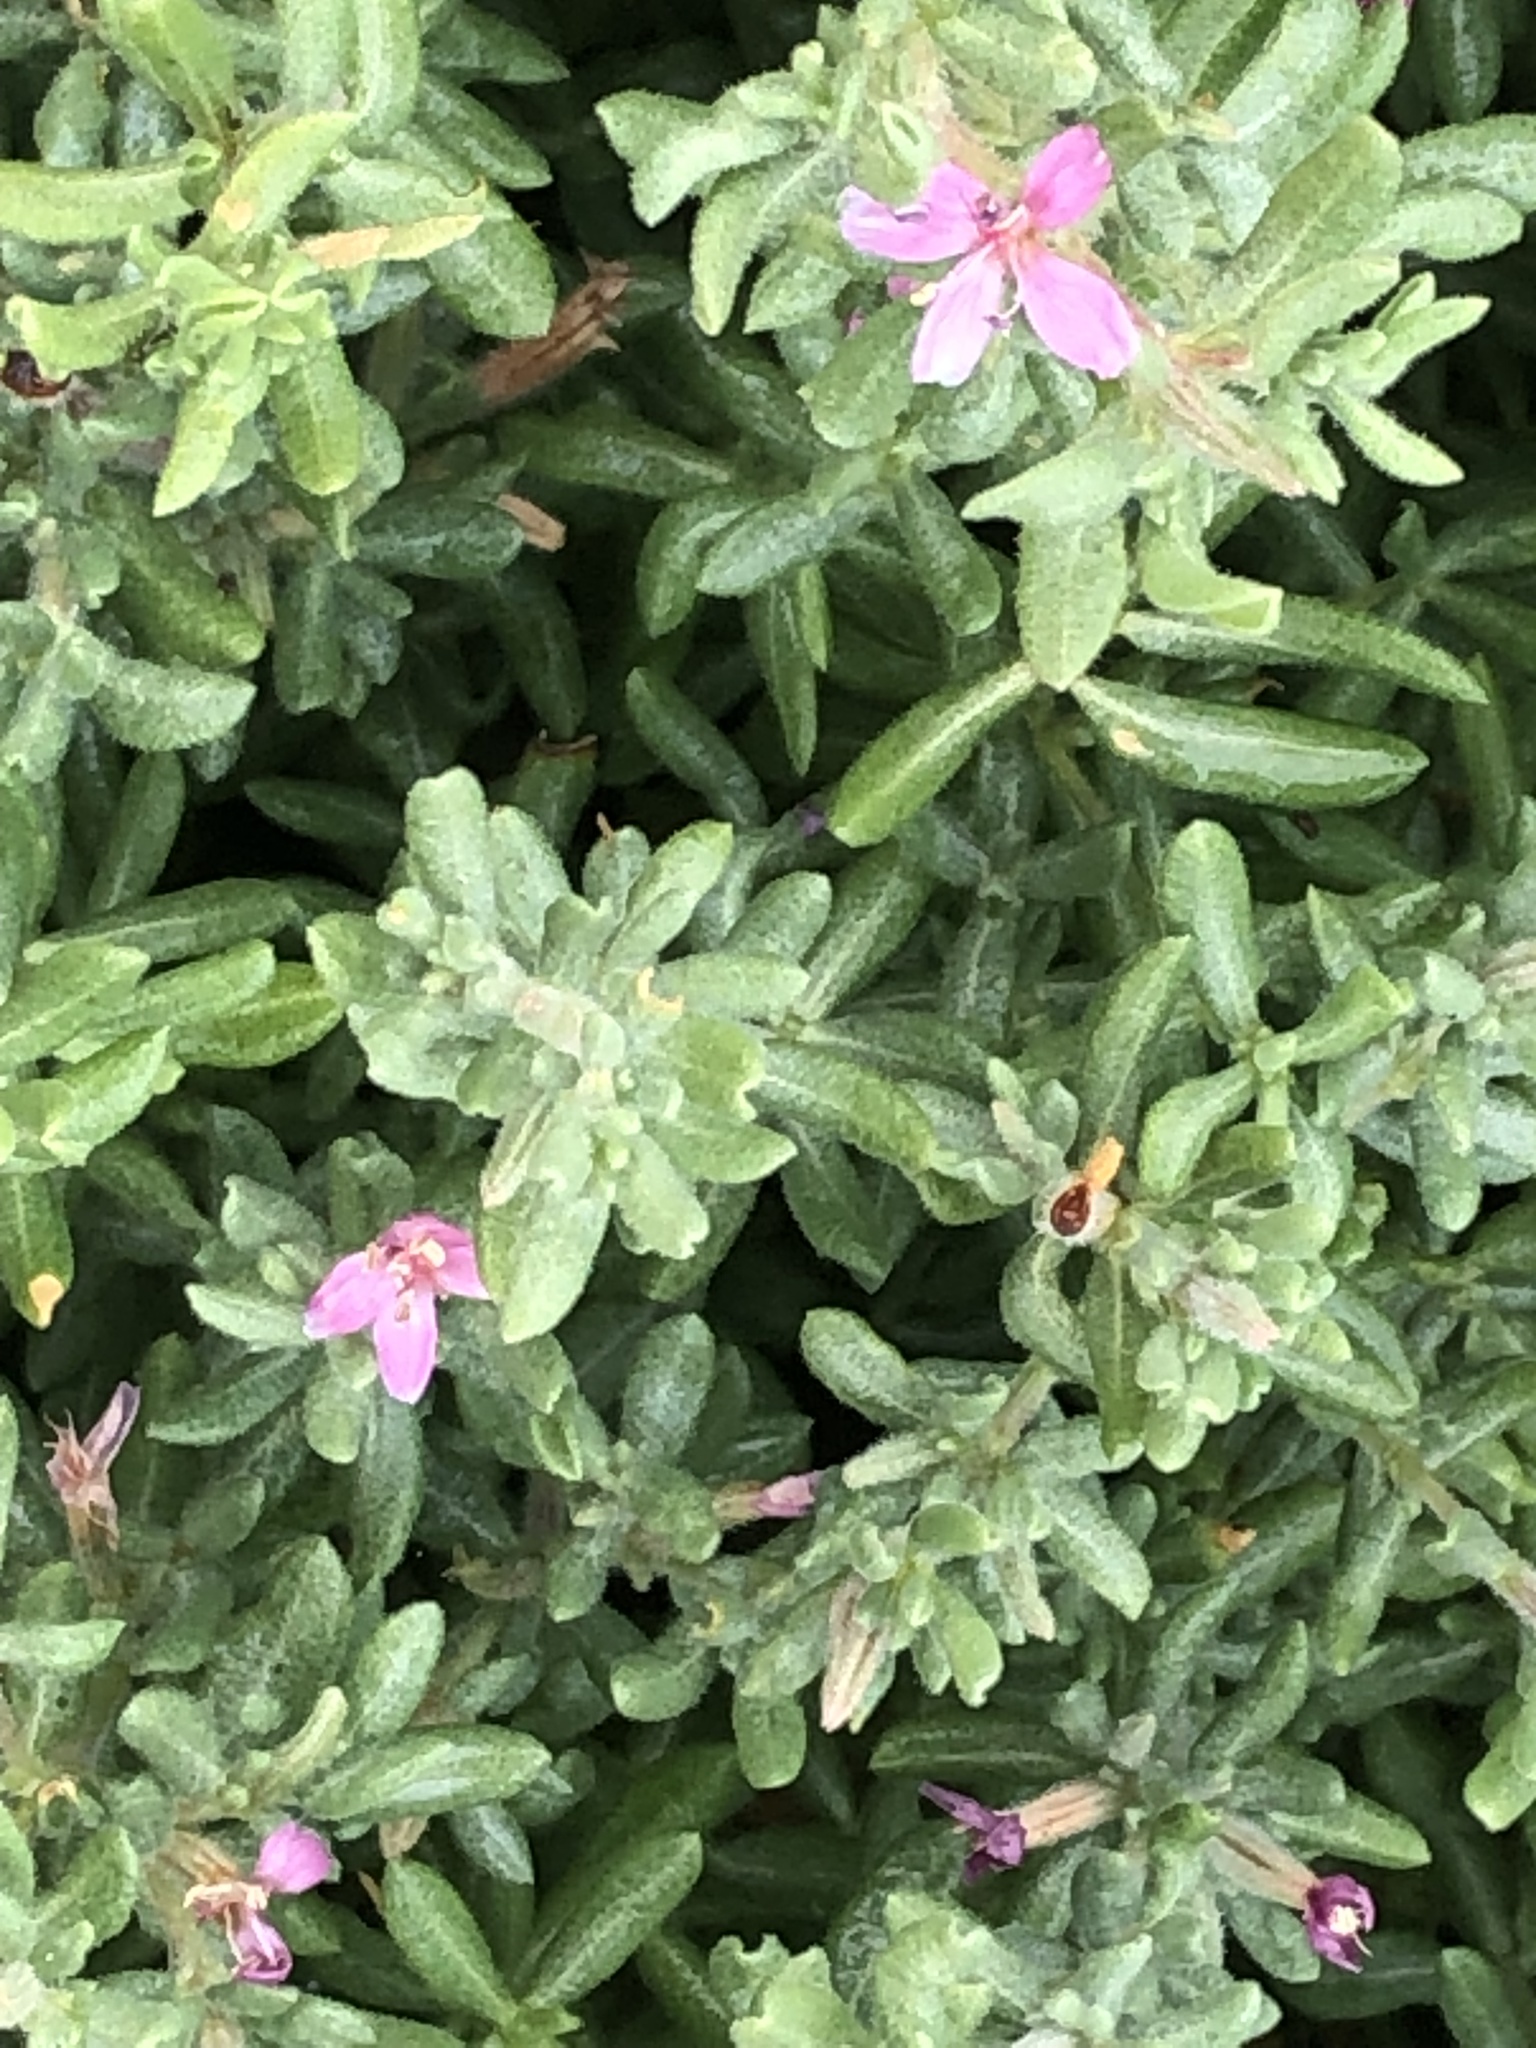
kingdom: Plantae
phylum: Tracheophyta
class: Magnoliopsida
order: Caryophyllales
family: Frankeniaceae
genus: Frankenia
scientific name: Frankenia salina
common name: Alkali seaheath
